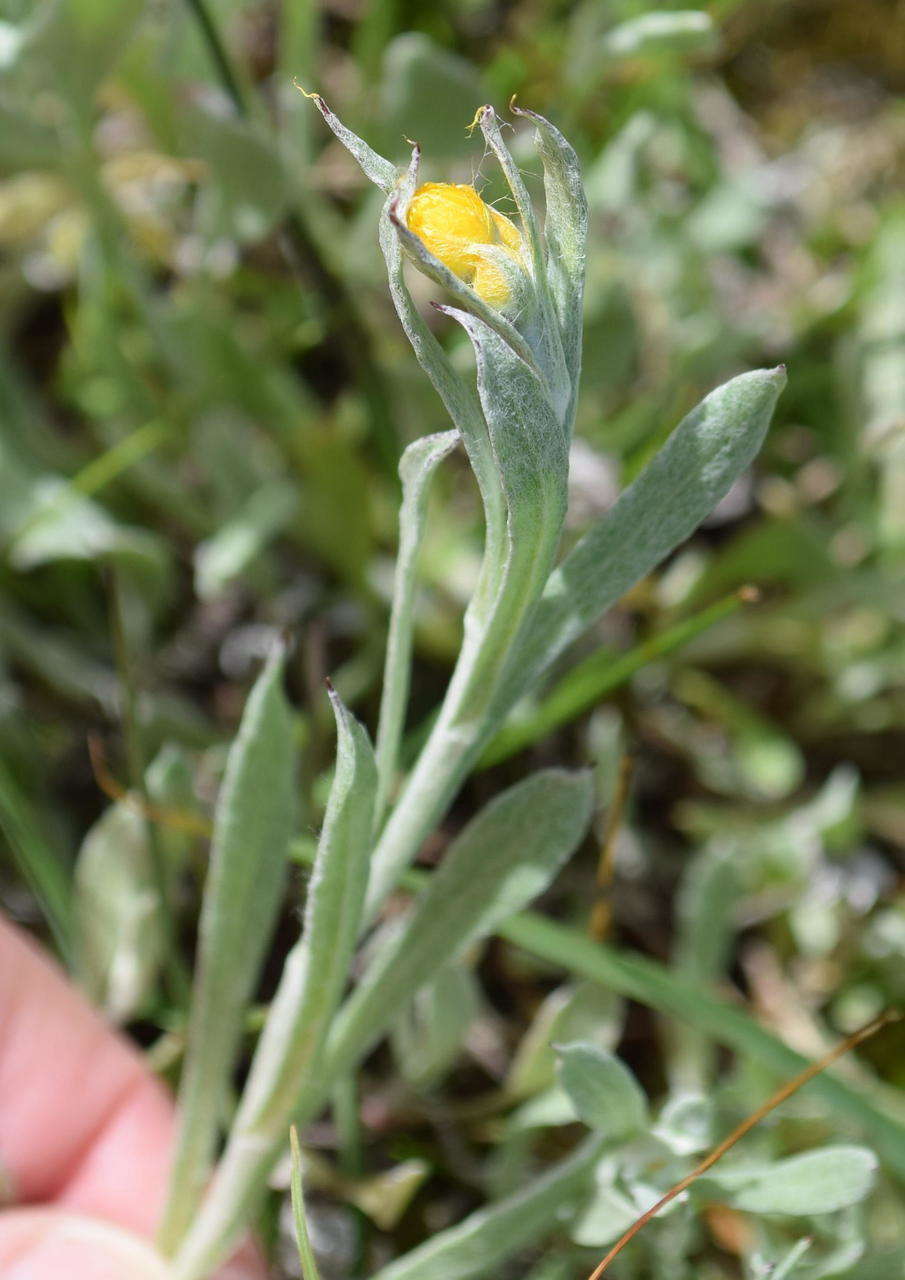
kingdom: Plantae
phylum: Tracheophyta
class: Magnoliopsida
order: Asterales
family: Asteraceae
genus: Chrysocephalum
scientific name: Chrysocephalum apiculatum
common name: Common everlasting
